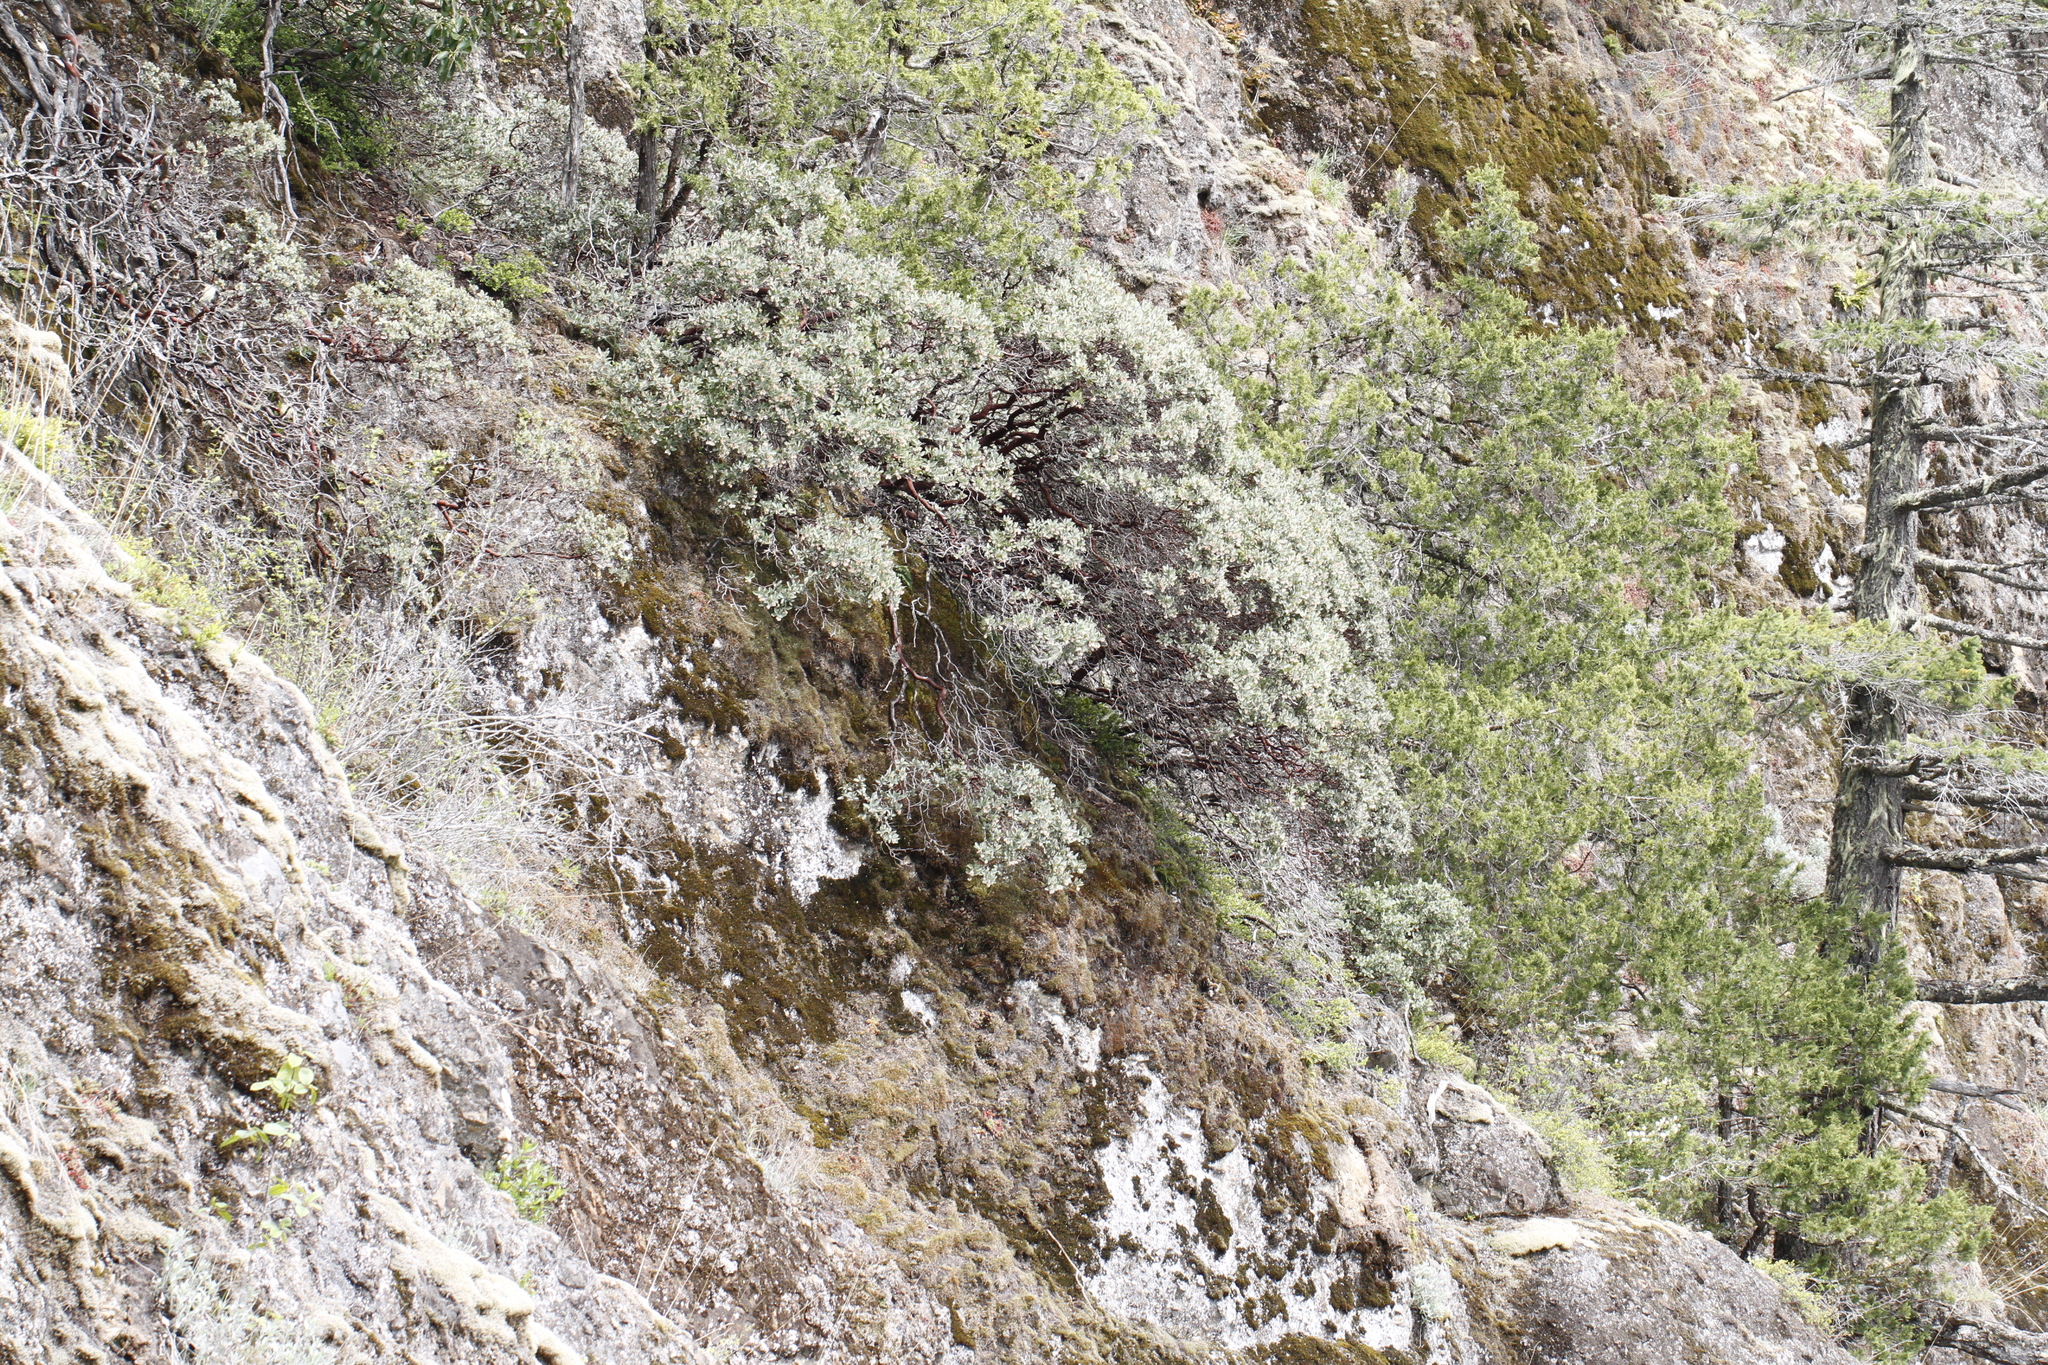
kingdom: Plantae
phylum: Tracheophyta
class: Magnoliopsida
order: Ericales
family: Ericaceae
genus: Arctostaphylos
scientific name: Arctostaphylos columbiana
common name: Bristly bearberry
